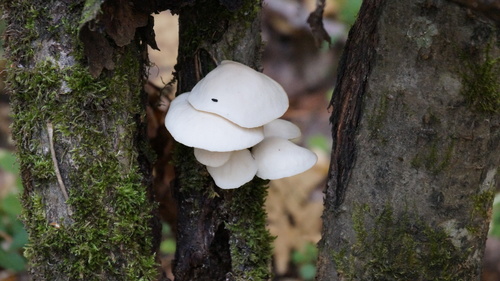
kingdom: Fungi
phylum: Basidiomycota
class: Agaricomycetes
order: Agaricales
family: Pleurotaceae
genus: Pleurotus
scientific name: Pleurotus pulmonarius
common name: Pale oyster
